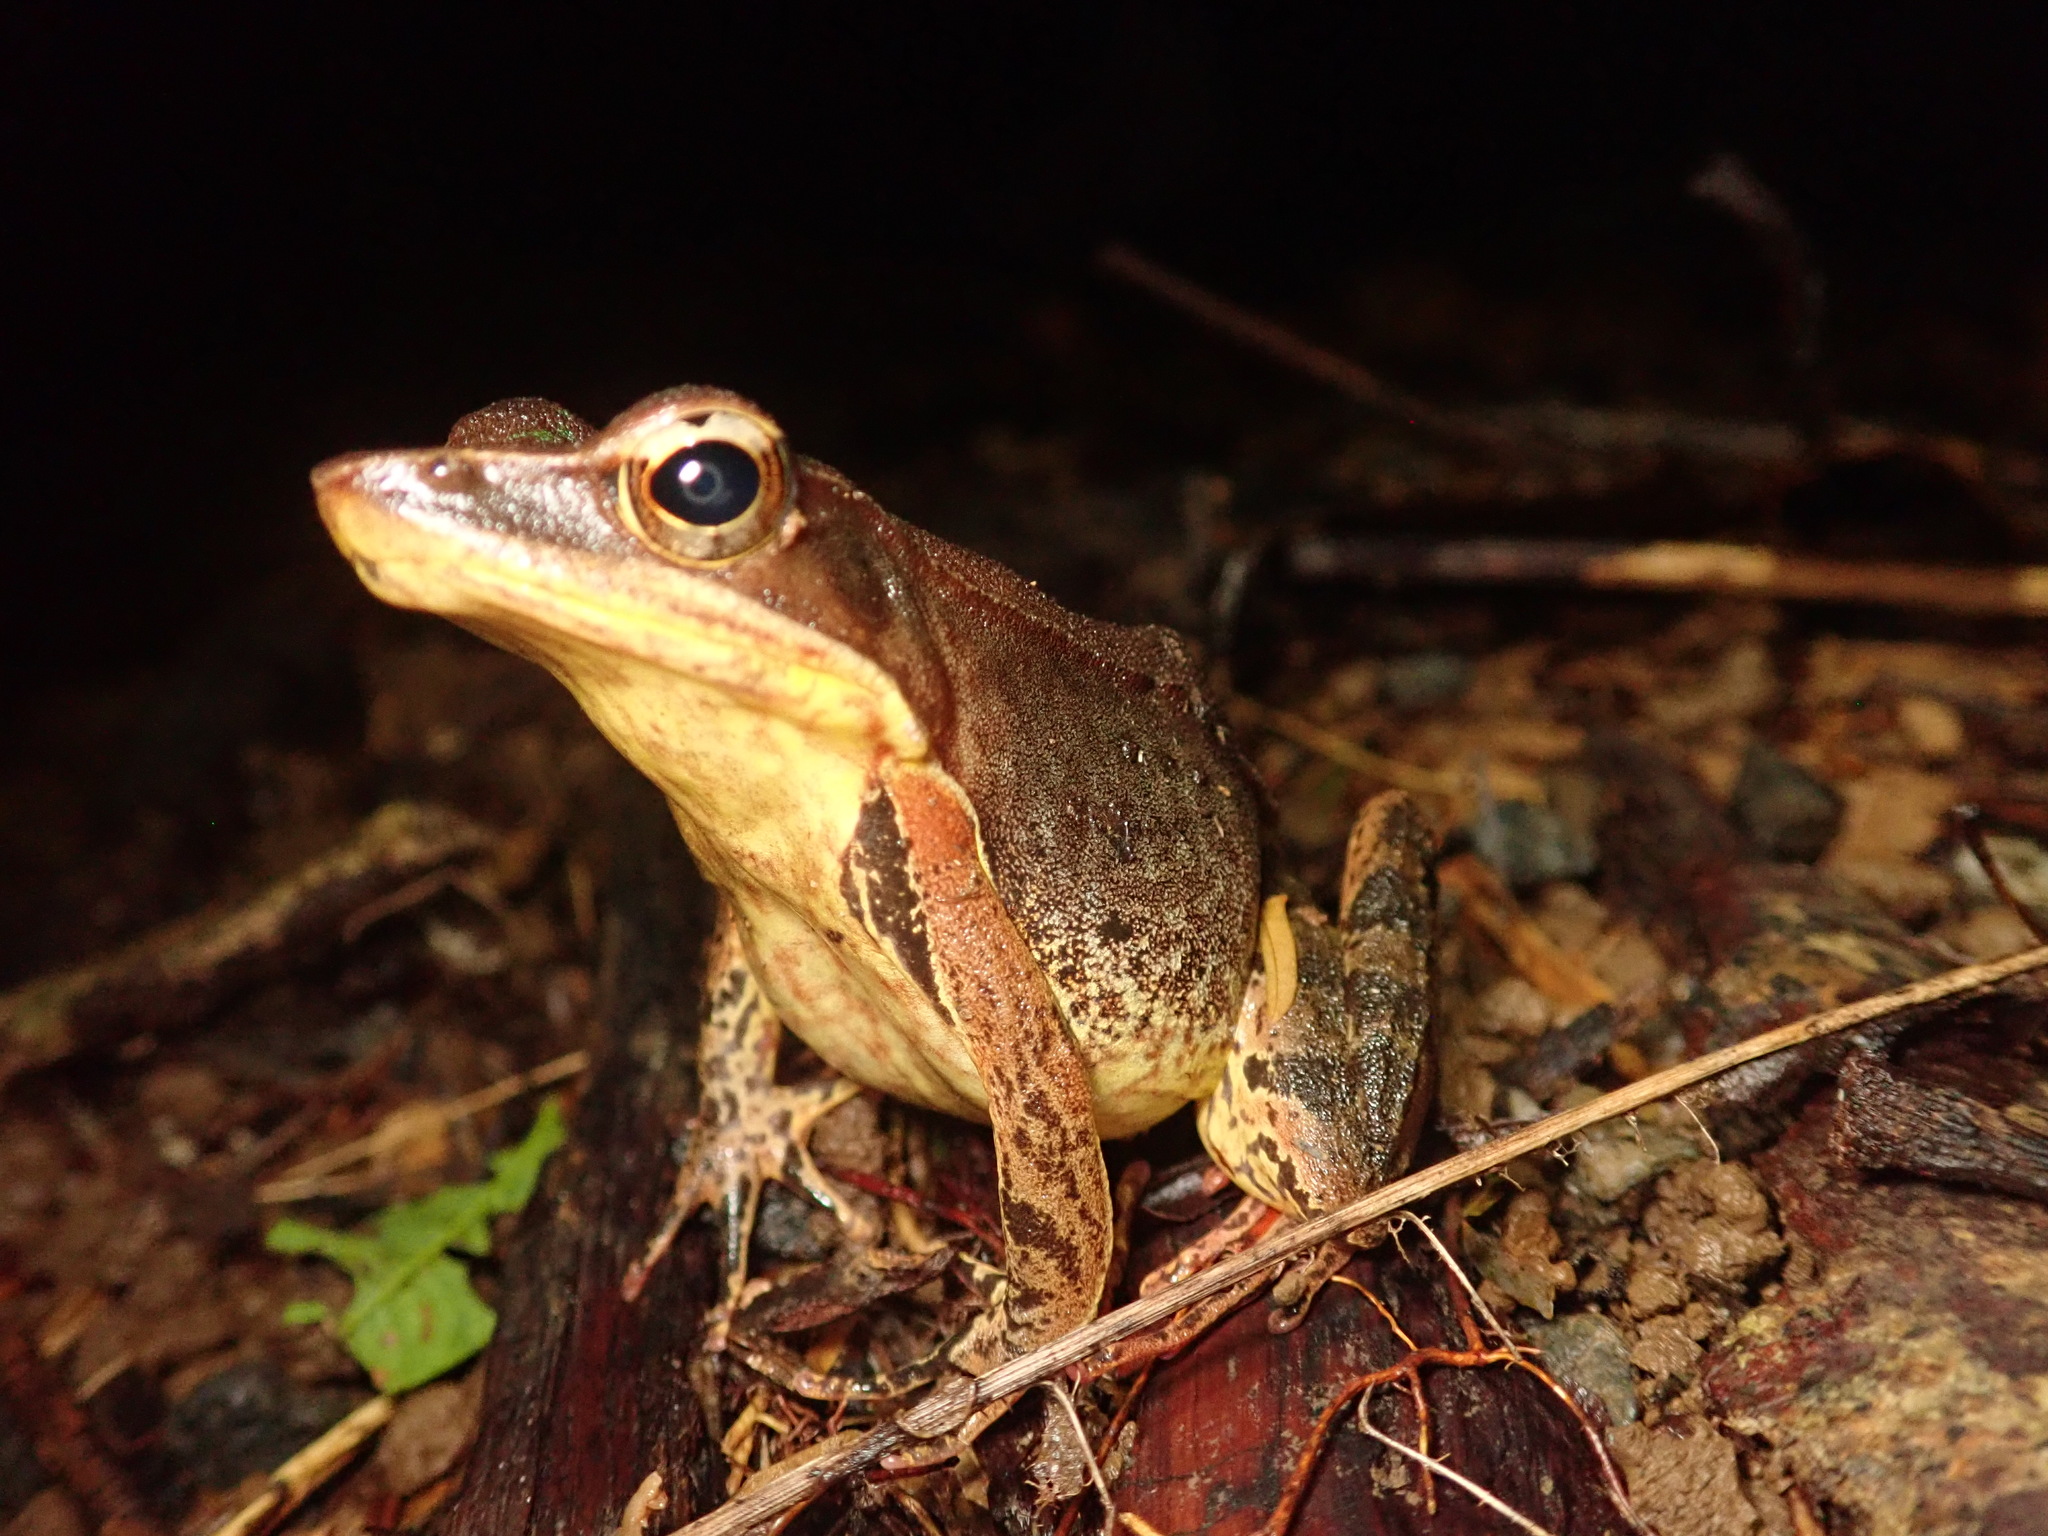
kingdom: Animalia
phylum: Chordata
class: Amphibia
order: Anura
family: Ranidae
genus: Lithobates
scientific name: Lithobates warszewitschii
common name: Warszewitsch's frog
